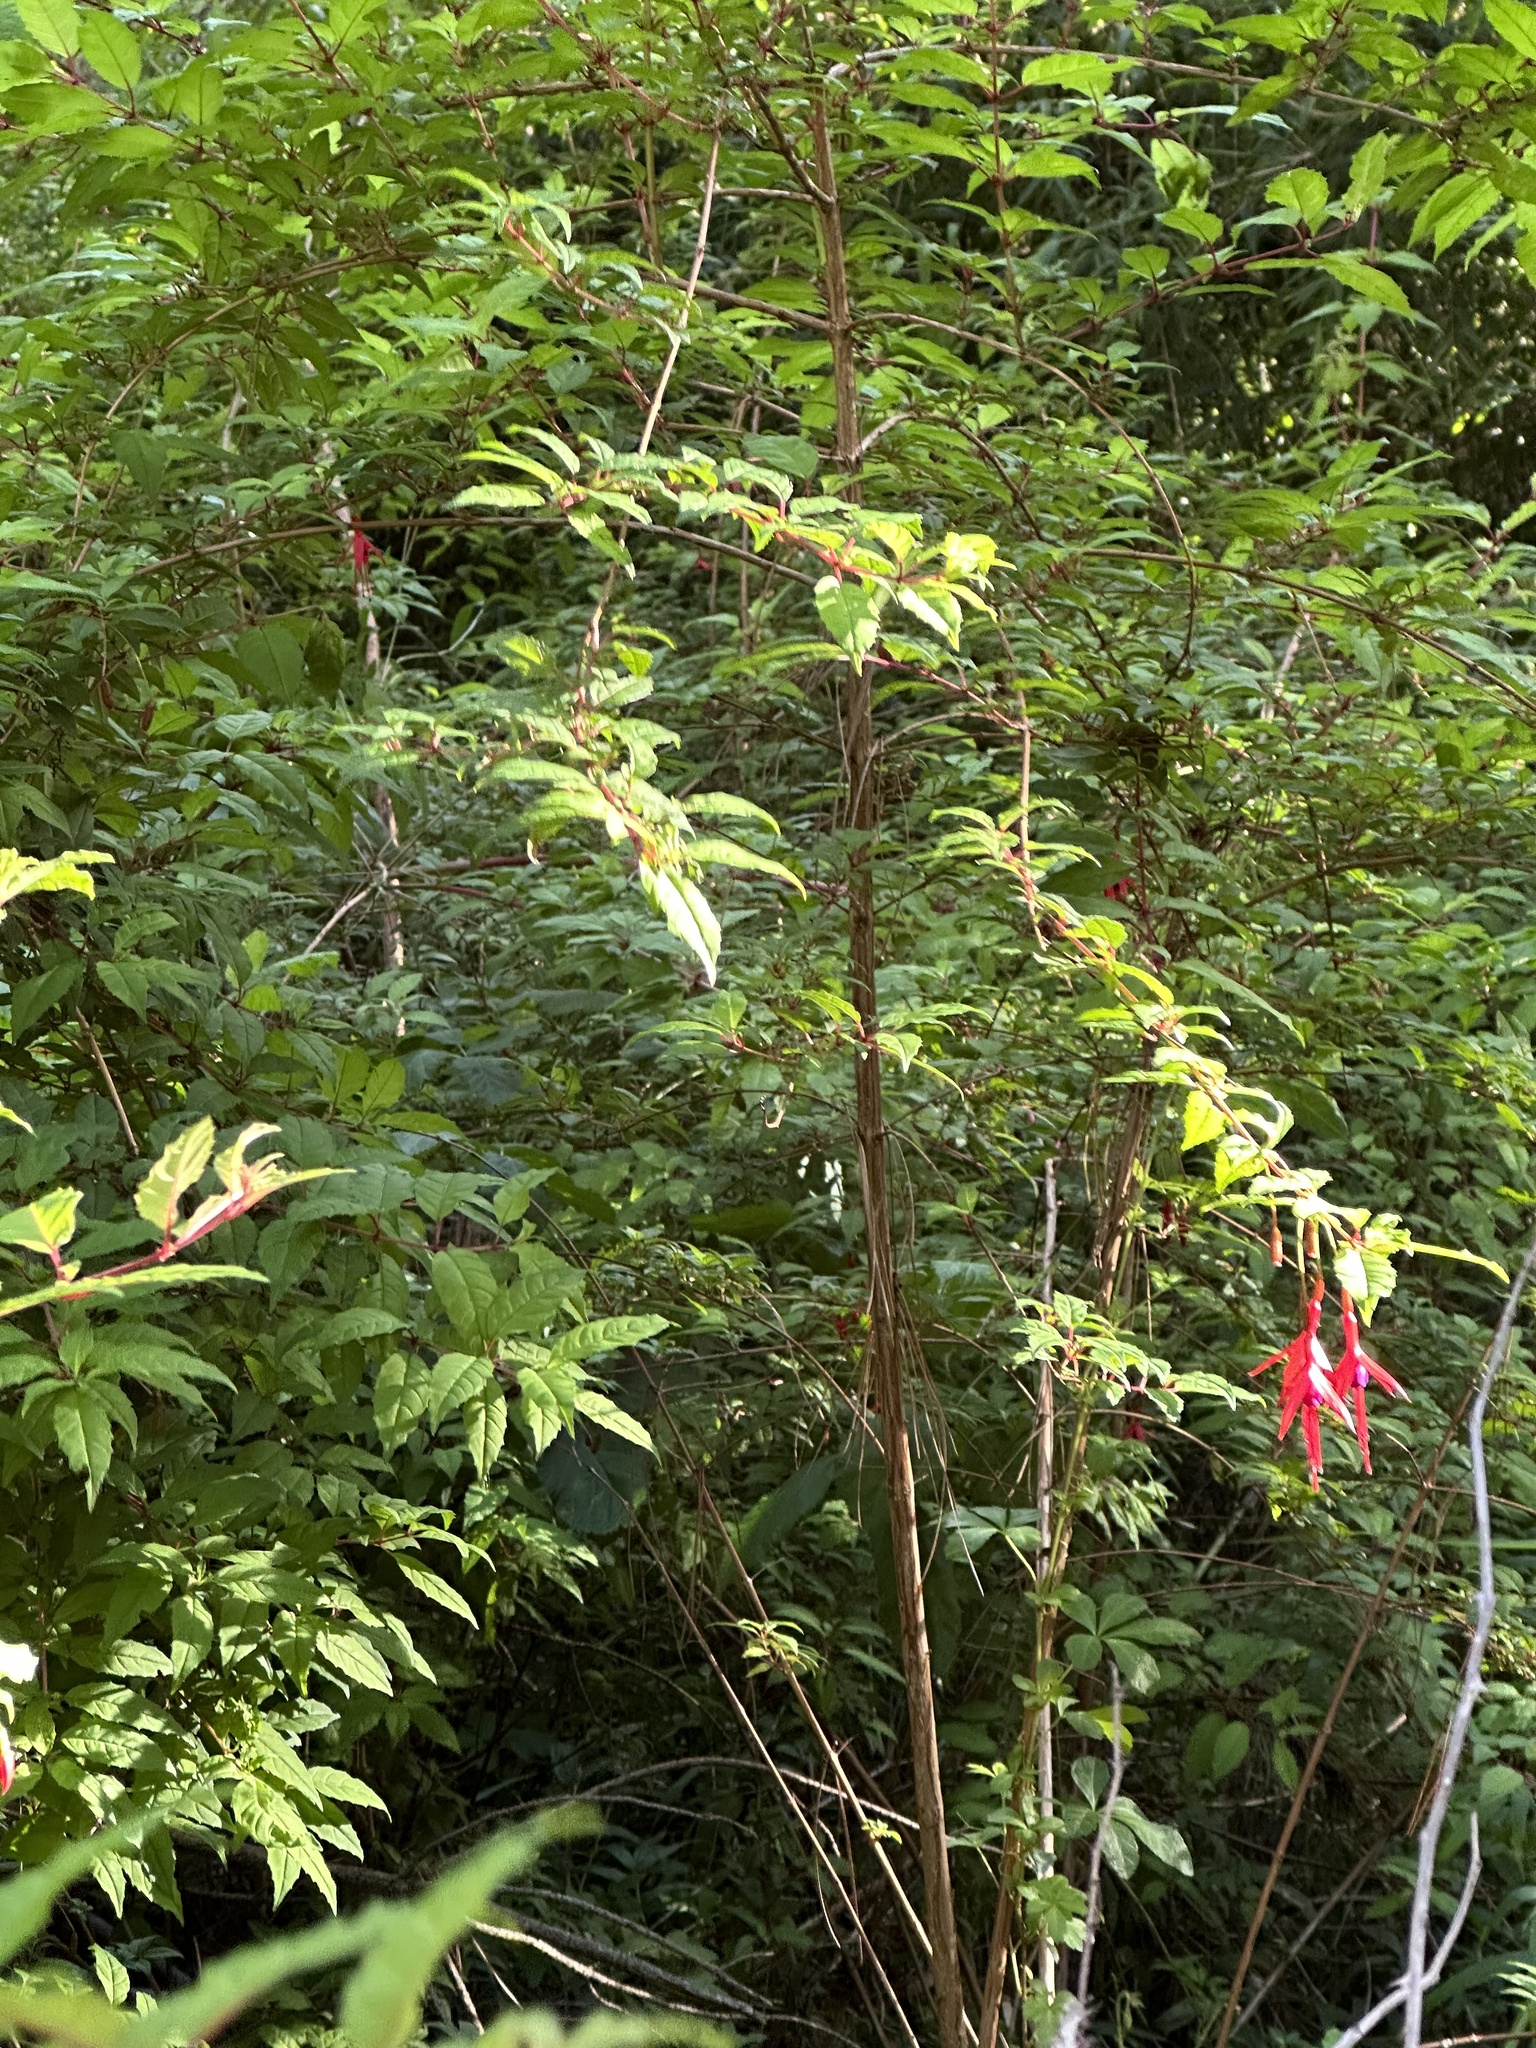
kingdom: Plantae
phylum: Tracheophyta
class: Magnoliopsida
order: Myrtales
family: Onagraceae
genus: Fuchsia
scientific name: Fuchsia magellanica
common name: Hardy fuchsia
